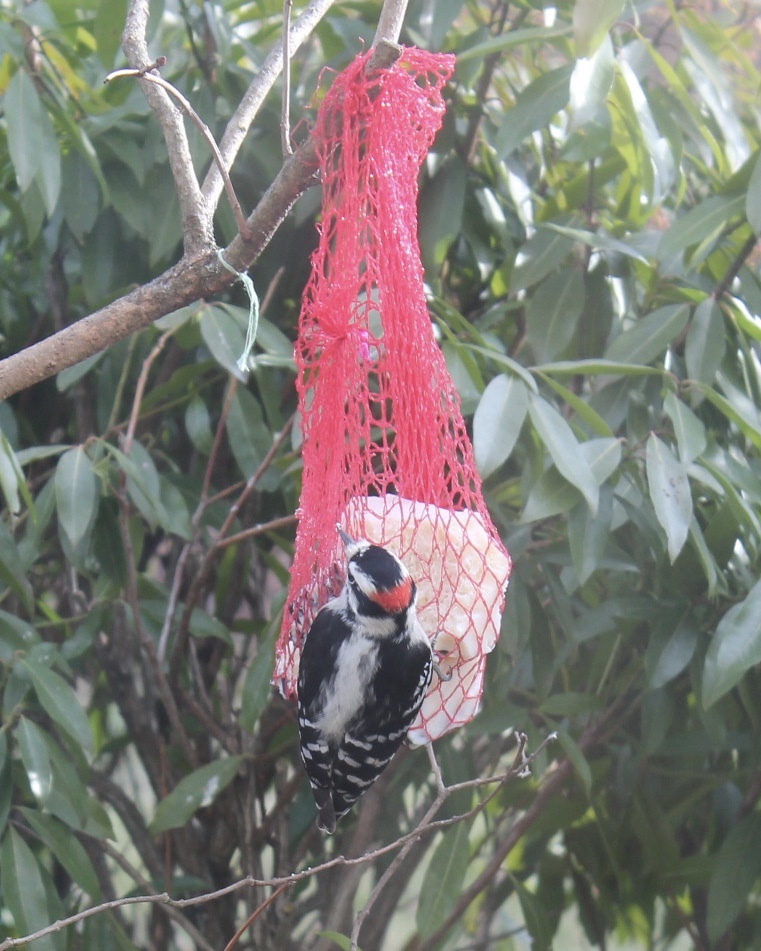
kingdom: Animalia
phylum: Chordata
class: Aves
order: Piciformes
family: Picidae
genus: Dryobates
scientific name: Dryobates pubescens
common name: Downy woodpecker
